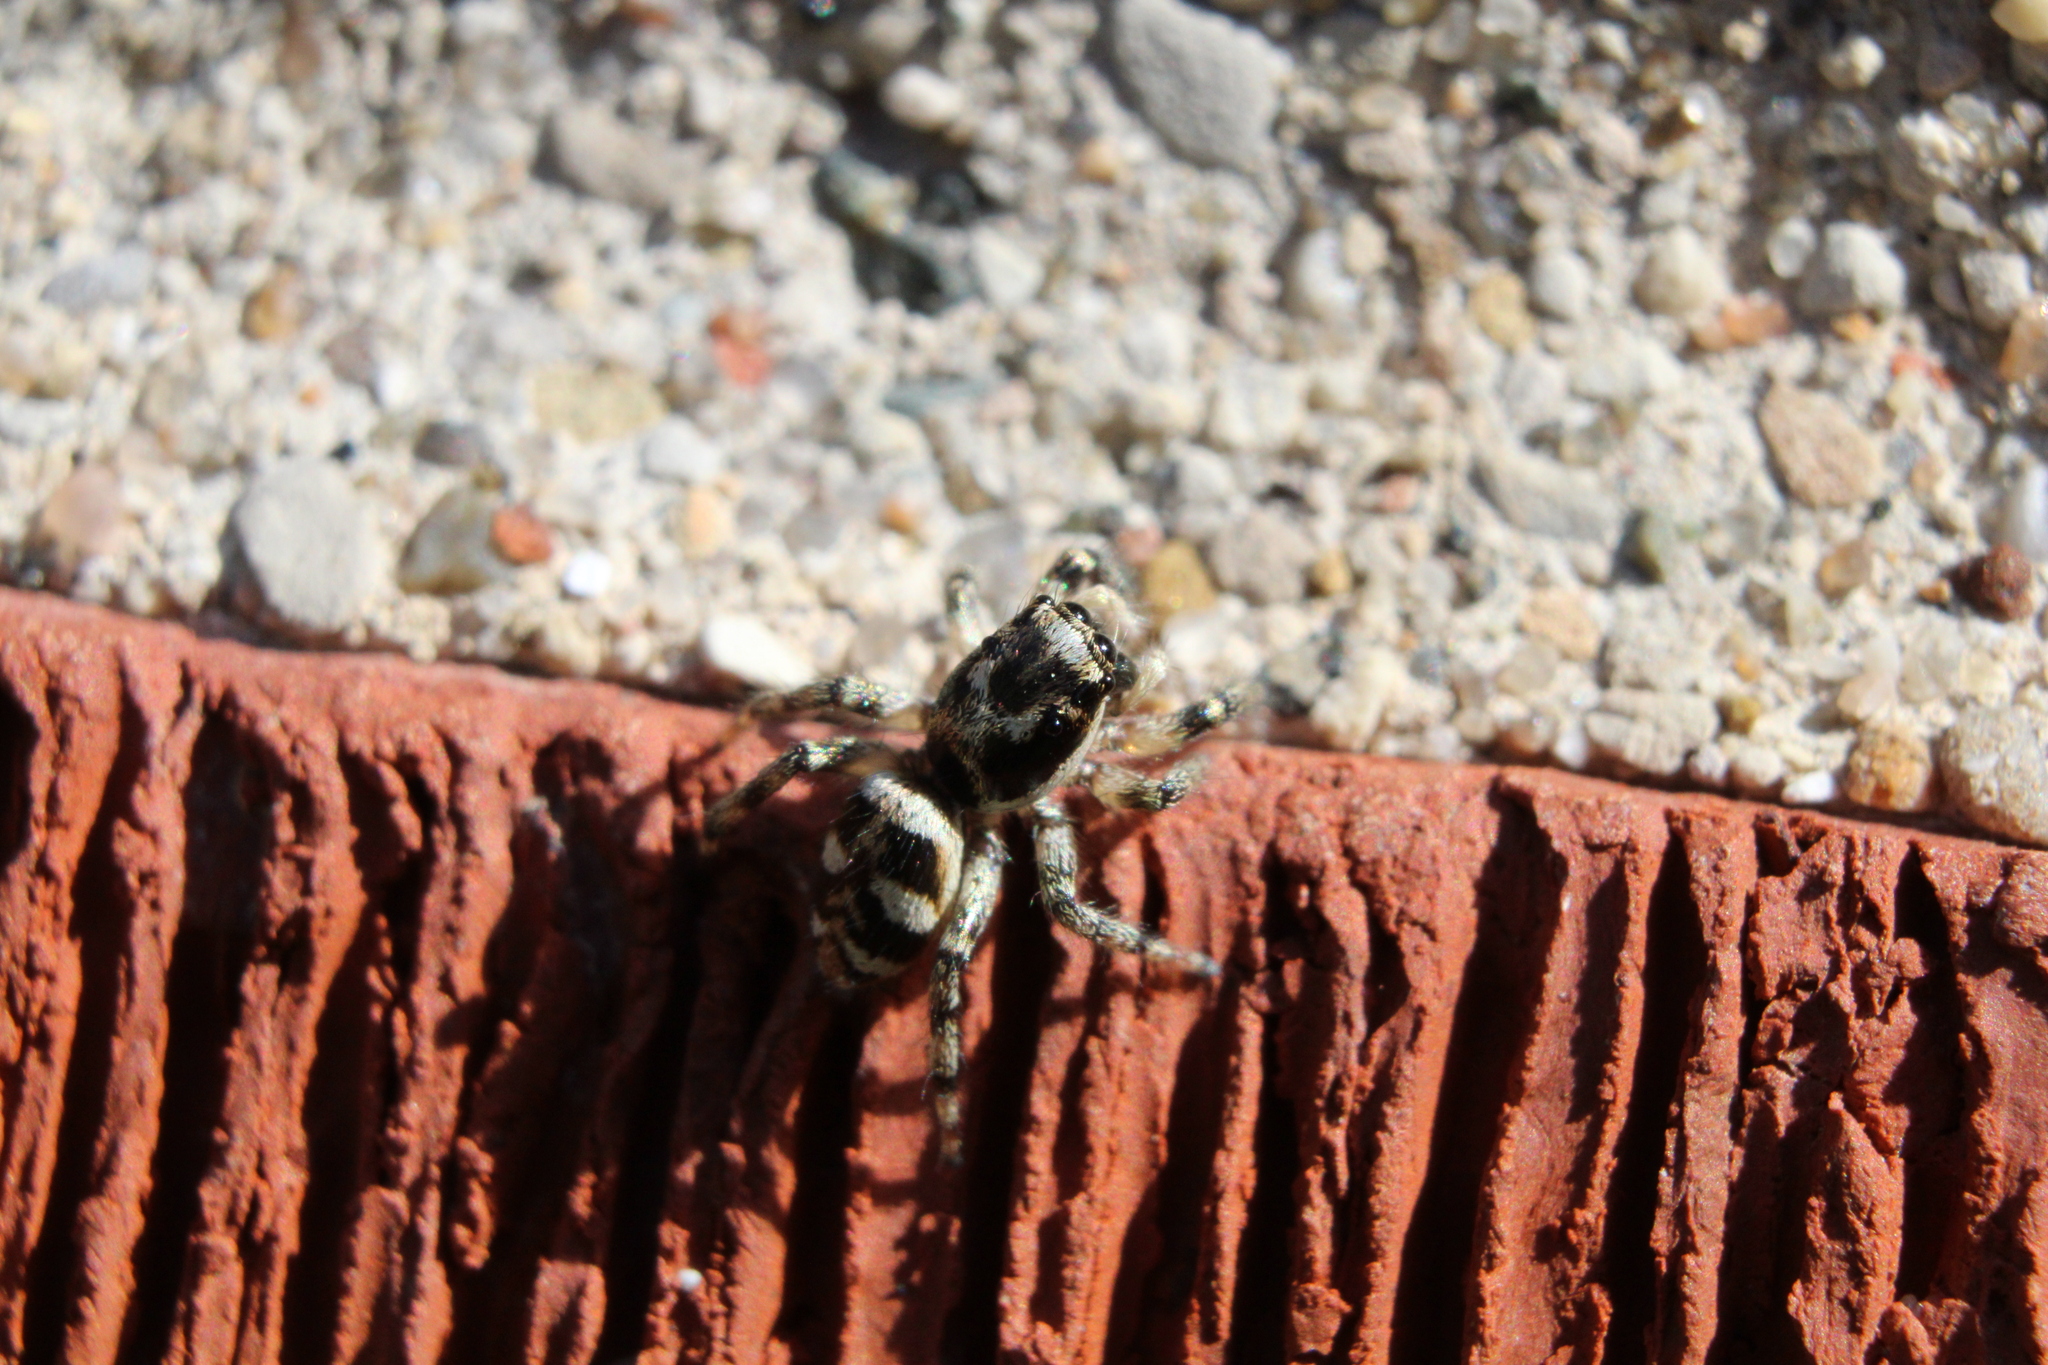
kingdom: Animalia
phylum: Arthropoda
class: Arachnida
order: Araneae
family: Salticidae
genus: Salticus
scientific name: Salticus scenicus
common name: Zebra jumper
